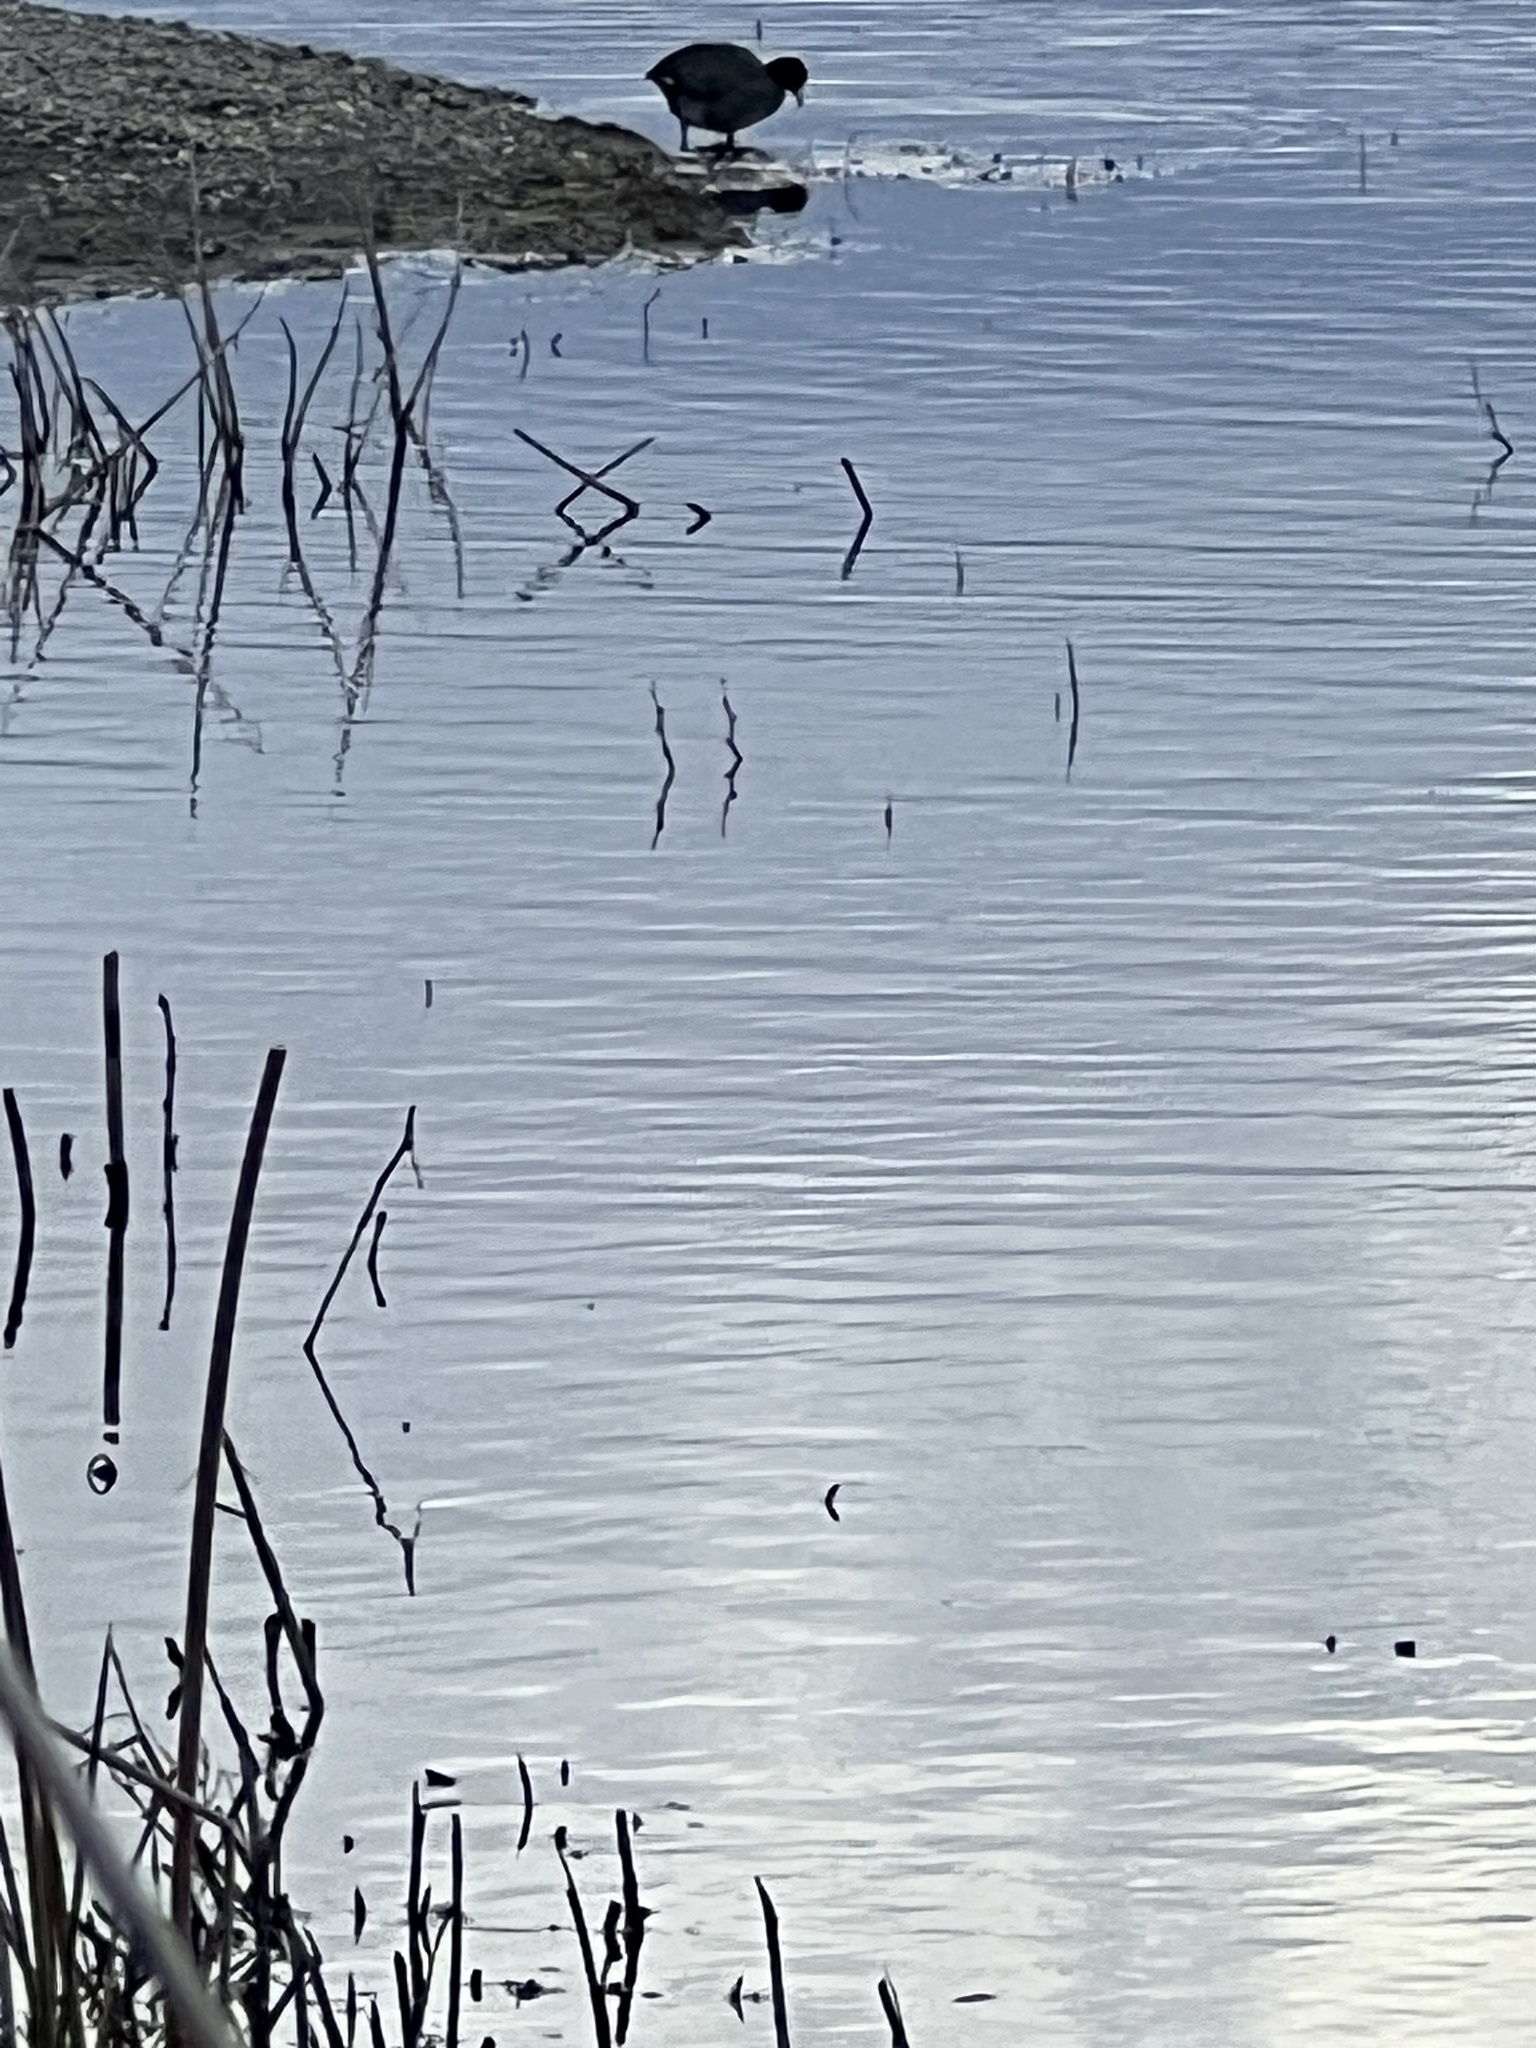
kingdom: Animalia
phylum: Chordata
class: Aves
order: Gruiformes
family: Rallidae
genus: Fulica
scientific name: Fulica americana
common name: American coot
